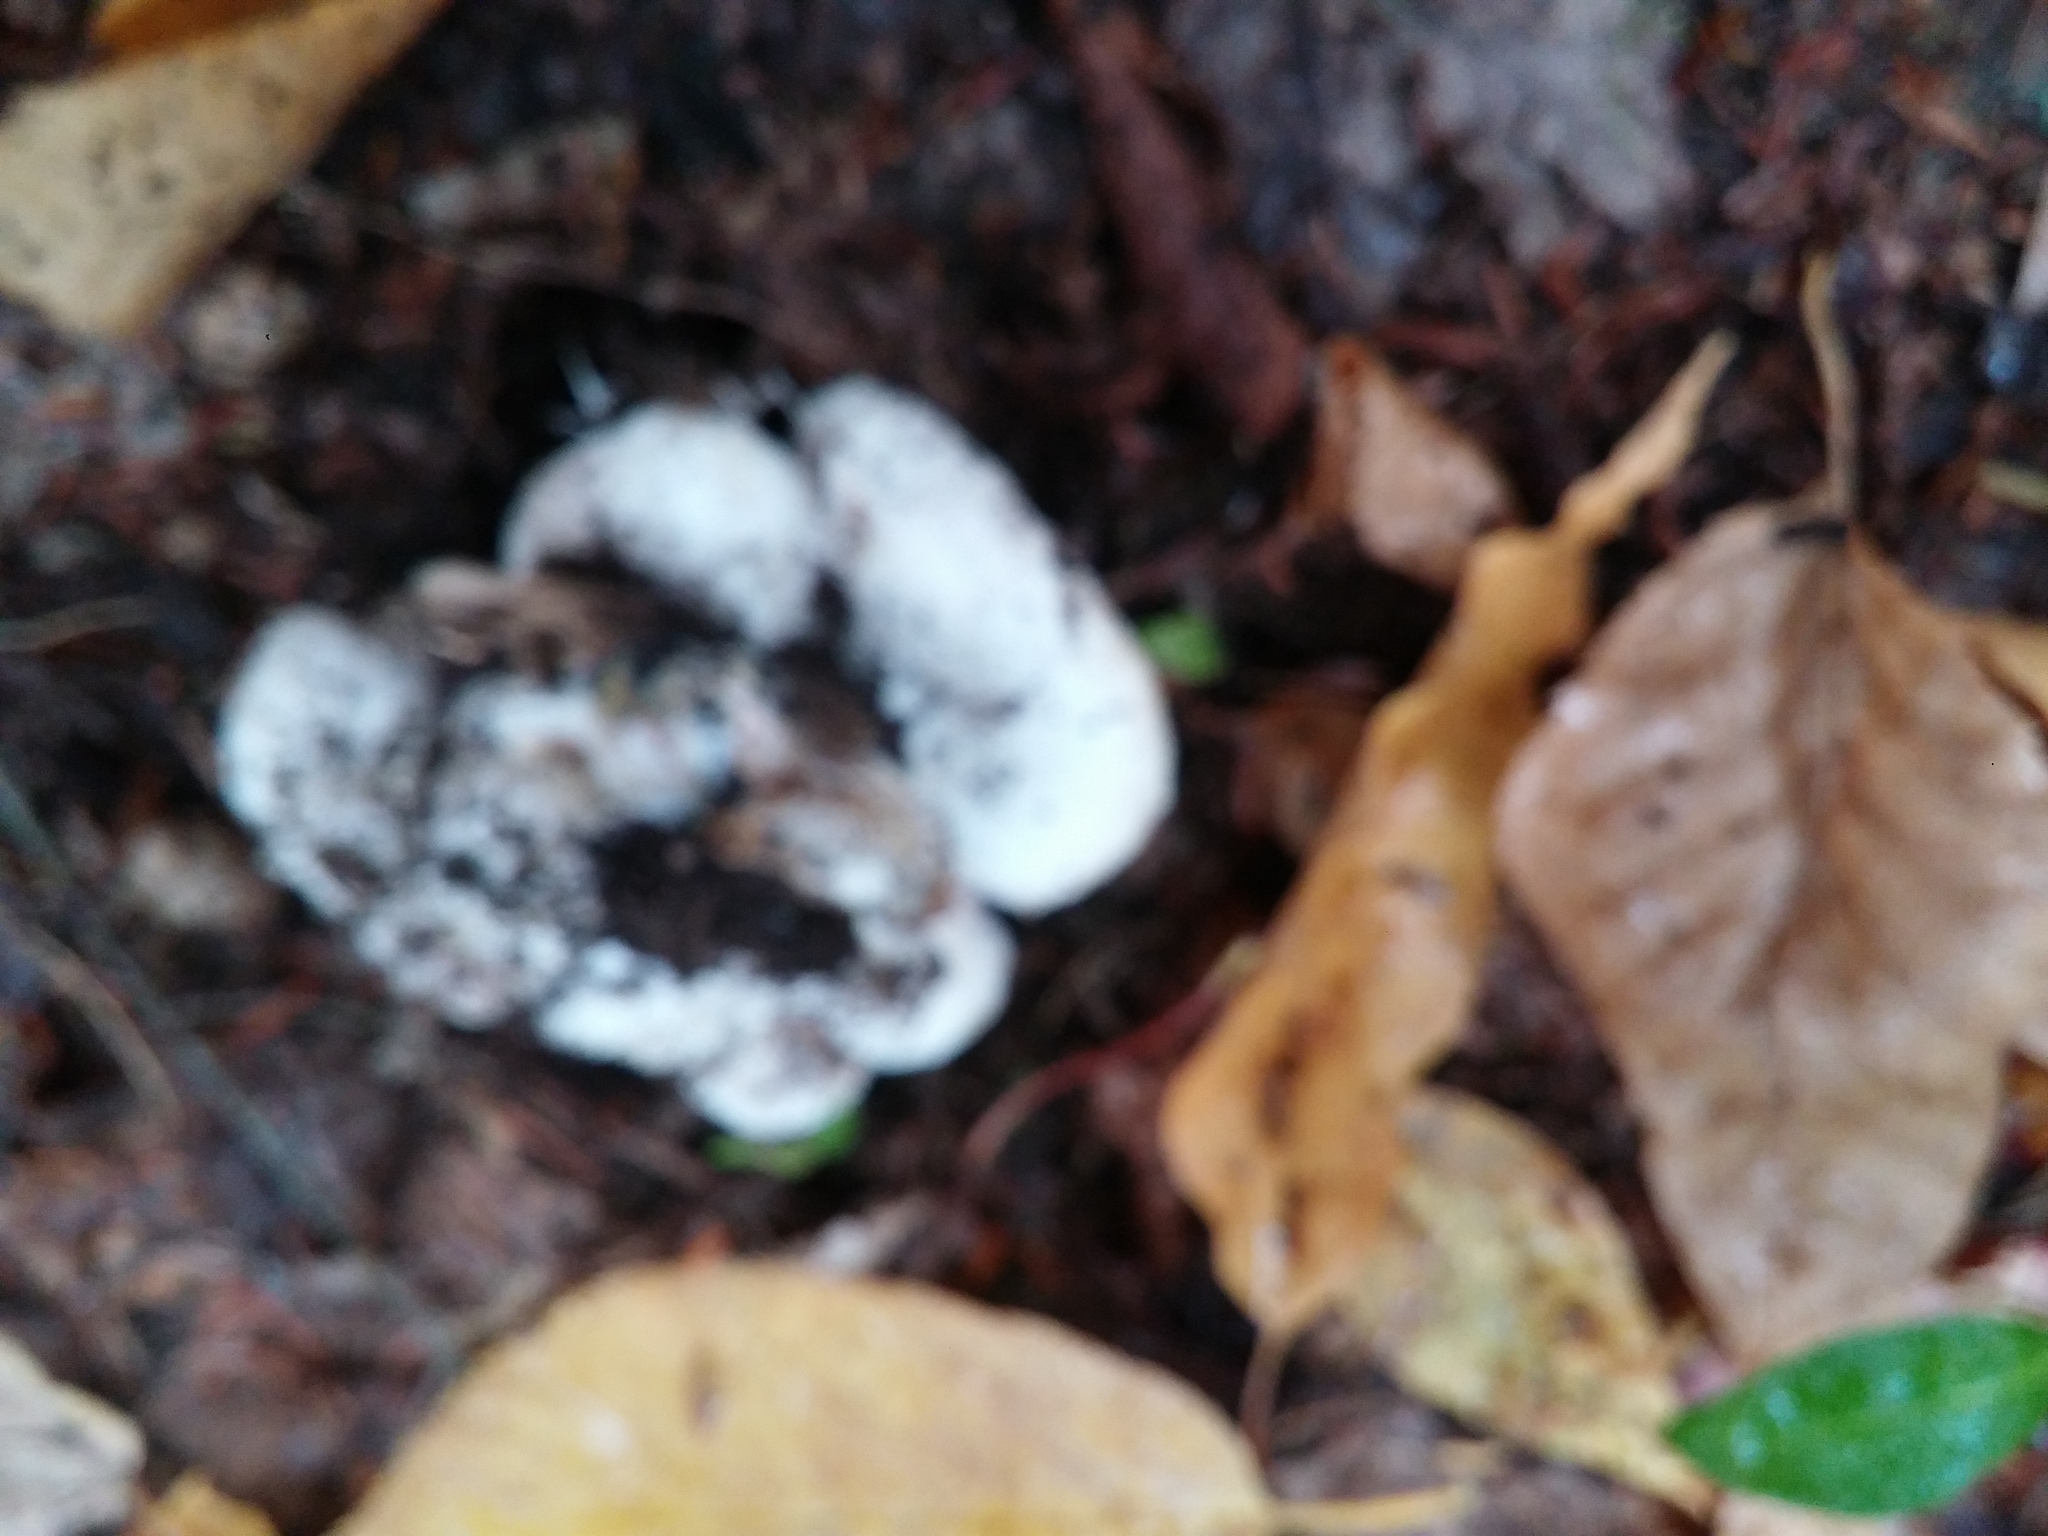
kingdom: Fungi
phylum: Basidiomycota
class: Agaricomycetes
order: Agaricales
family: Entolomataceae
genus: Entoloma
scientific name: Entoloma abortivum
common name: Aborted entoloma
